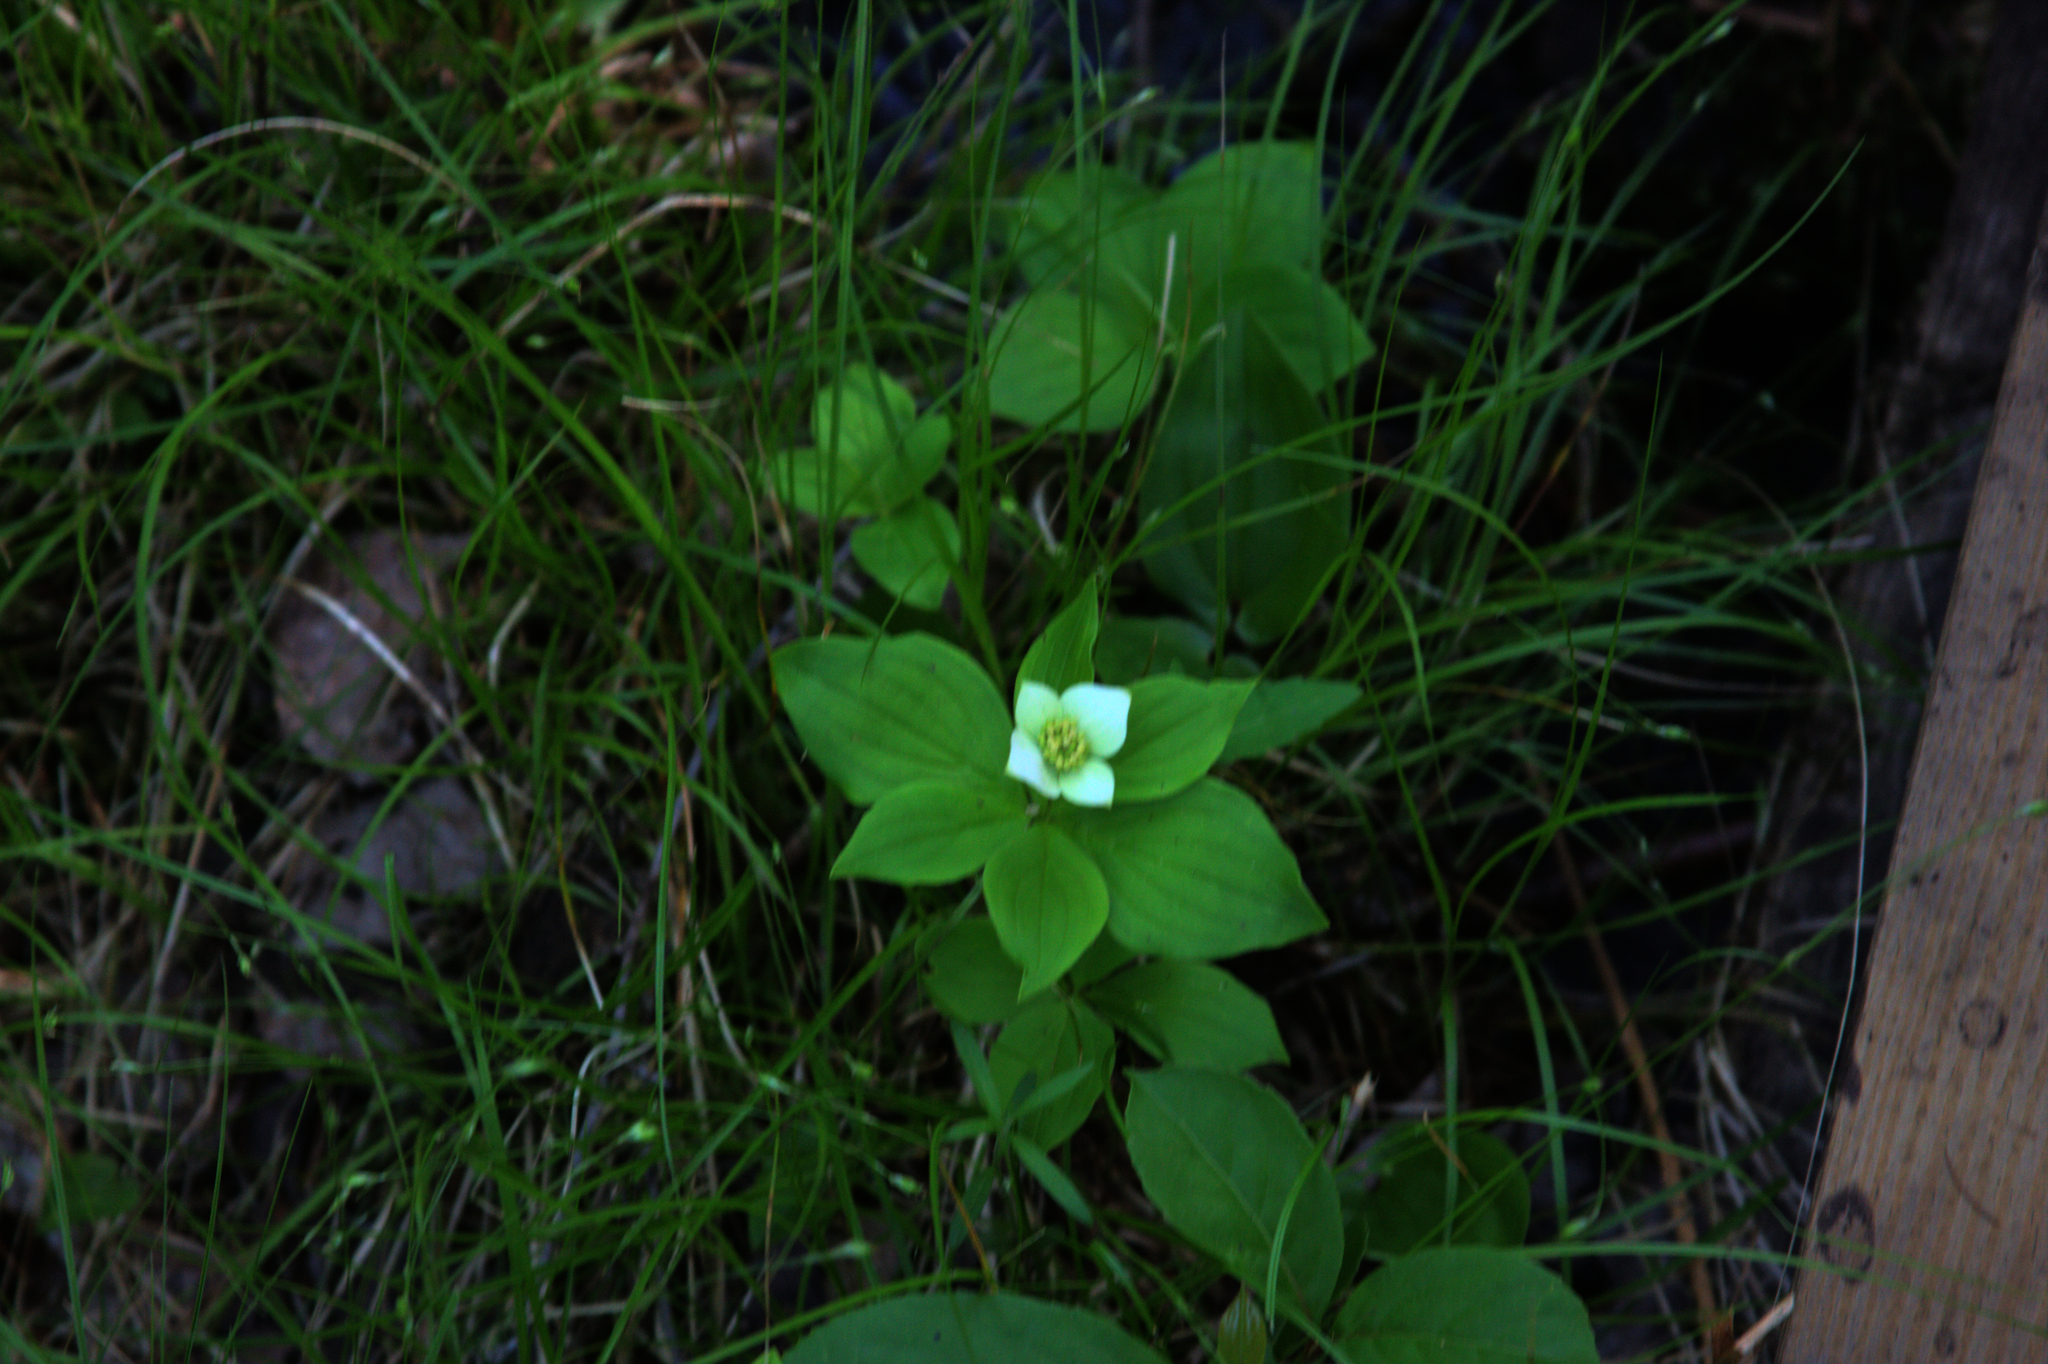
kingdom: Plantae
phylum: Tracheophyta
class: Magnoliopsida
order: Cornales
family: Cornaceae
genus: Cornus
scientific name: Cornus canadensis
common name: Creeping dogwood
